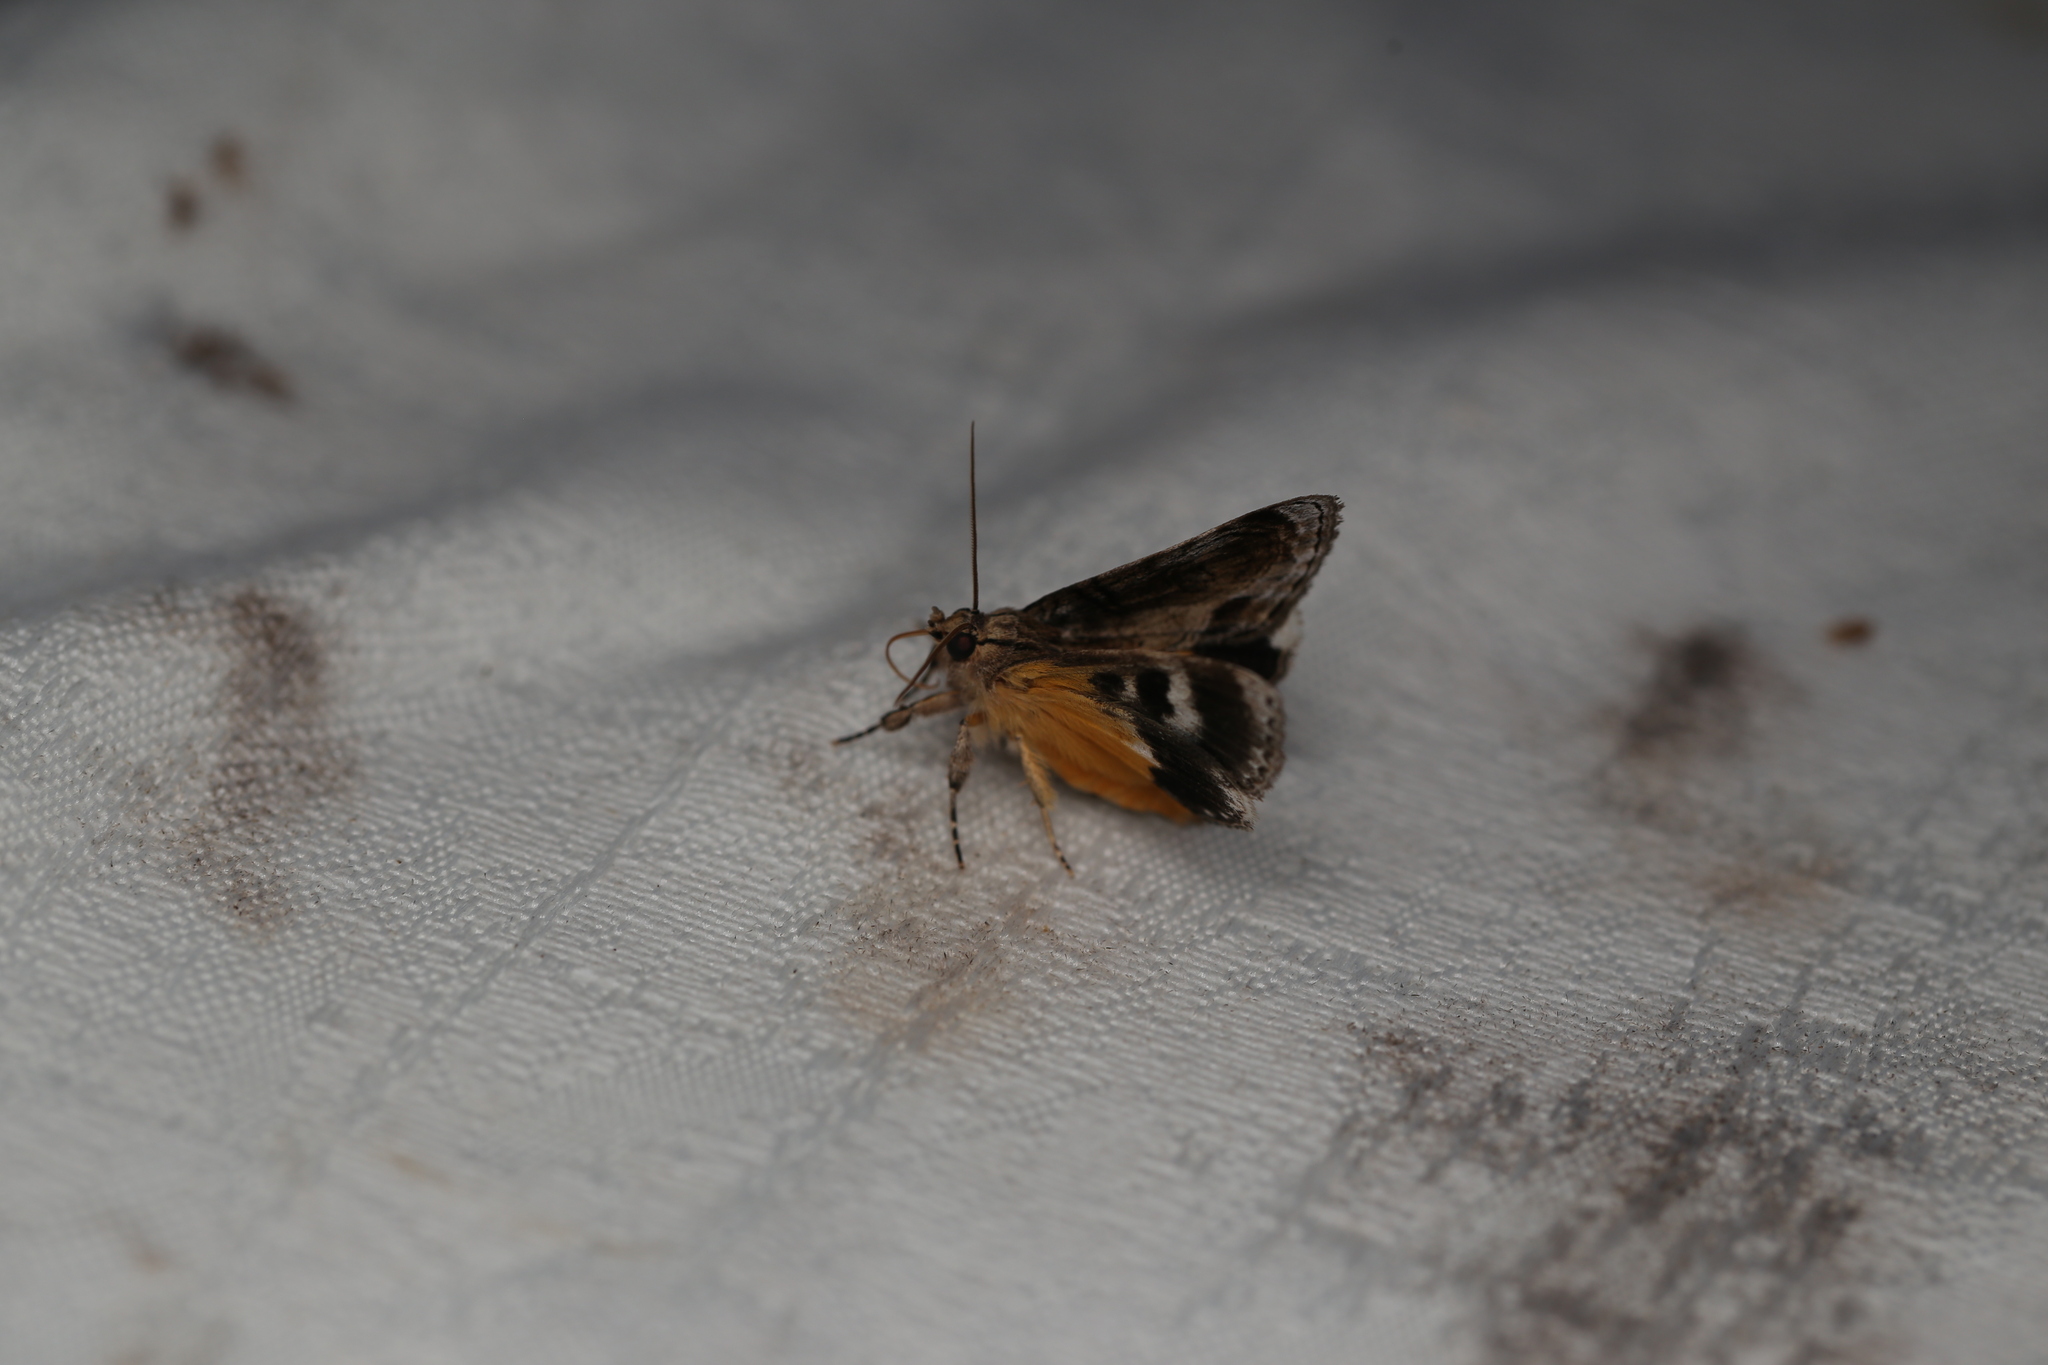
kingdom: Animalia
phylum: Arthropoda
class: Insecta
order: Lepidoptera
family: Noctuidae
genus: Zalissa
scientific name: Zalissa catocalina
